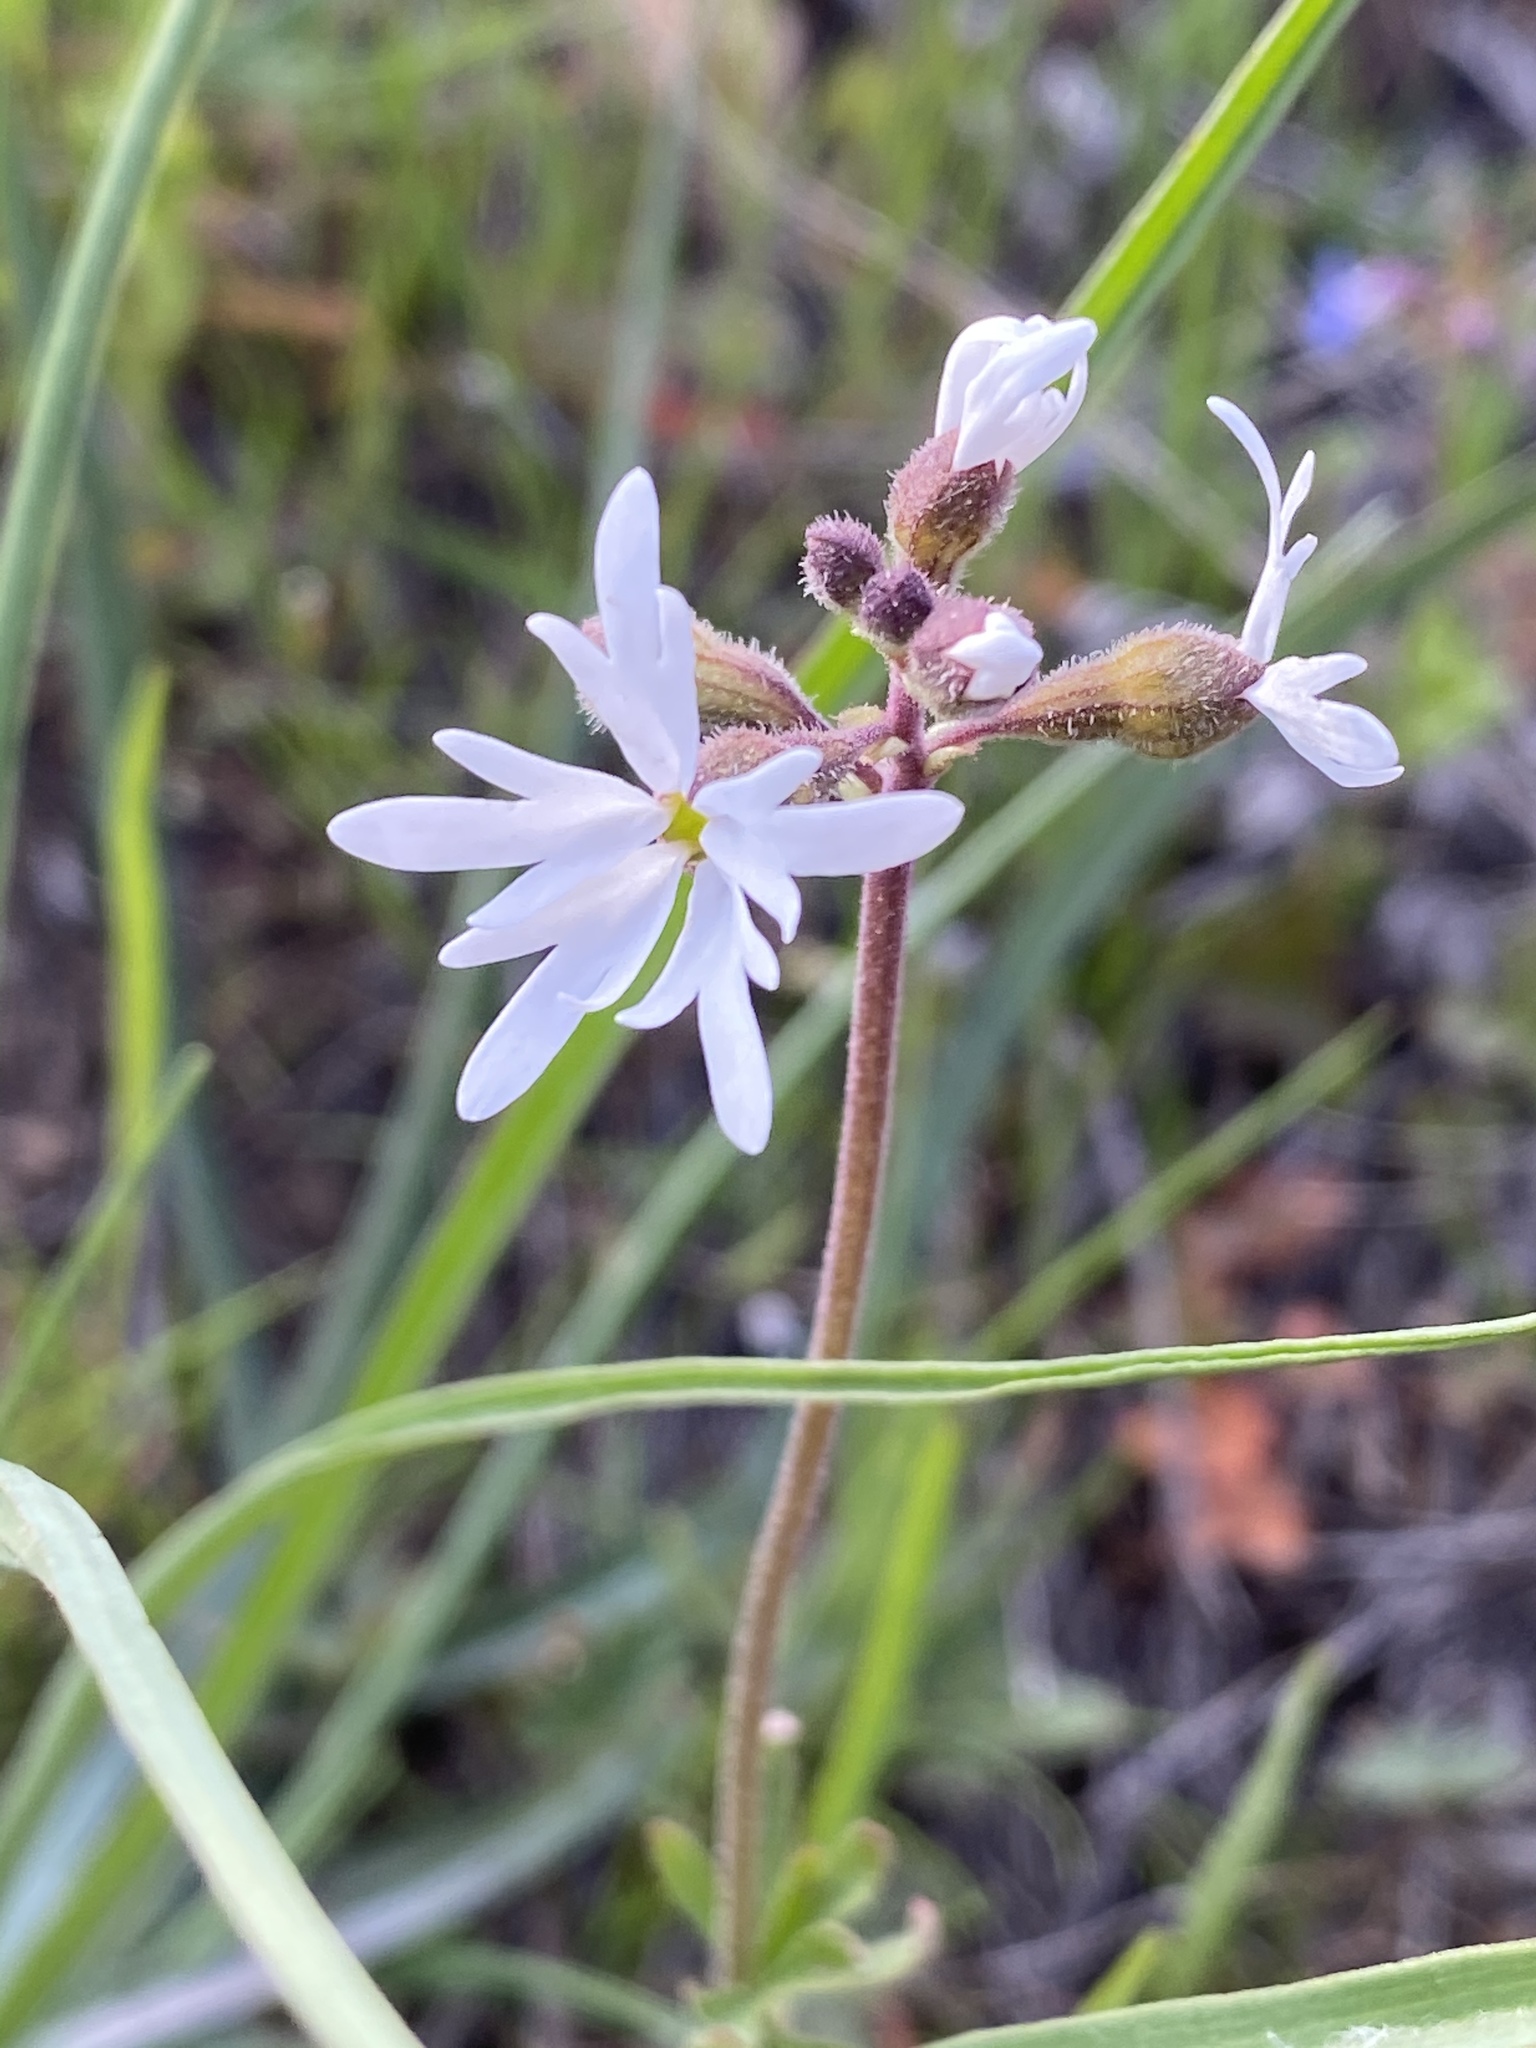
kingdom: Plantae
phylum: Tracheophyta
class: Magnoliopsida
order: Saxifragales
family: Saxifragaceae
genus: Lithophragma
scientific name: Lithophragma parviflorum
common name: Small-flowered fringe-cup
